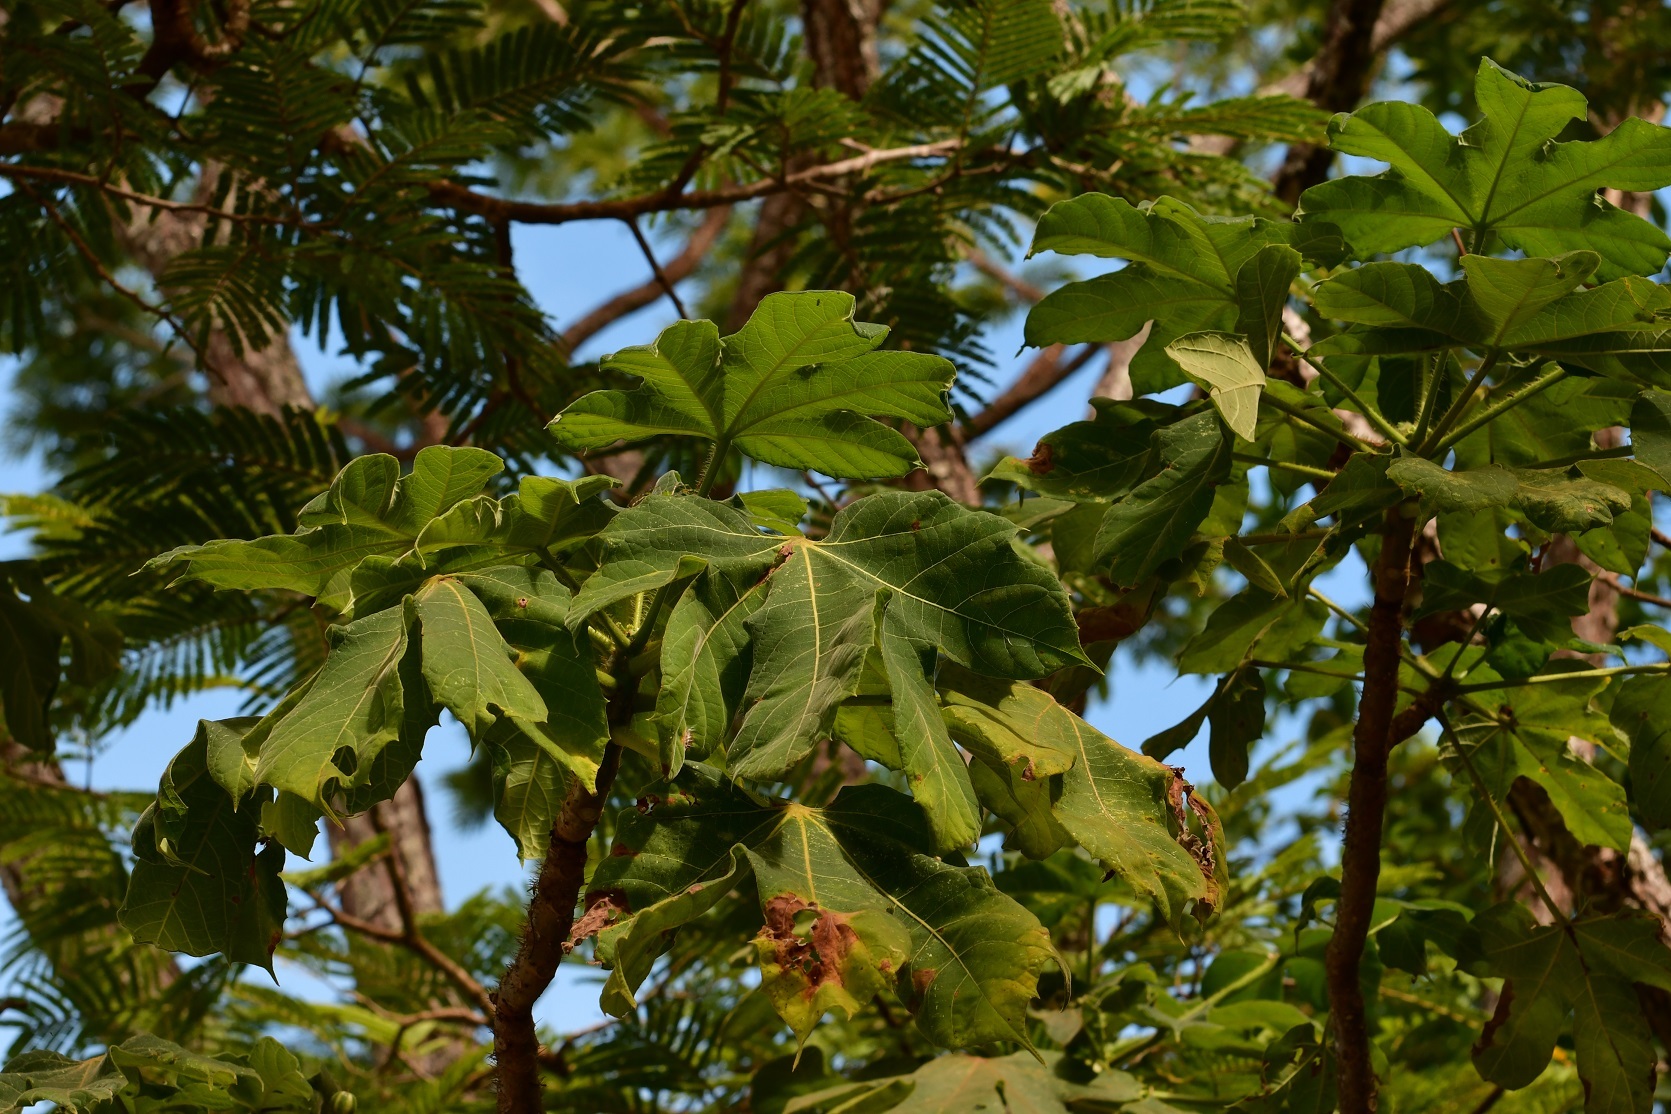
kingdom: Plantae
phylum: Tracheophyta
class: Magnoliopsida
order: Malpighiales
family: Euphorbiaceae
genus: Cnidoscolus
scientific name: Cnidoscolus multilobus
